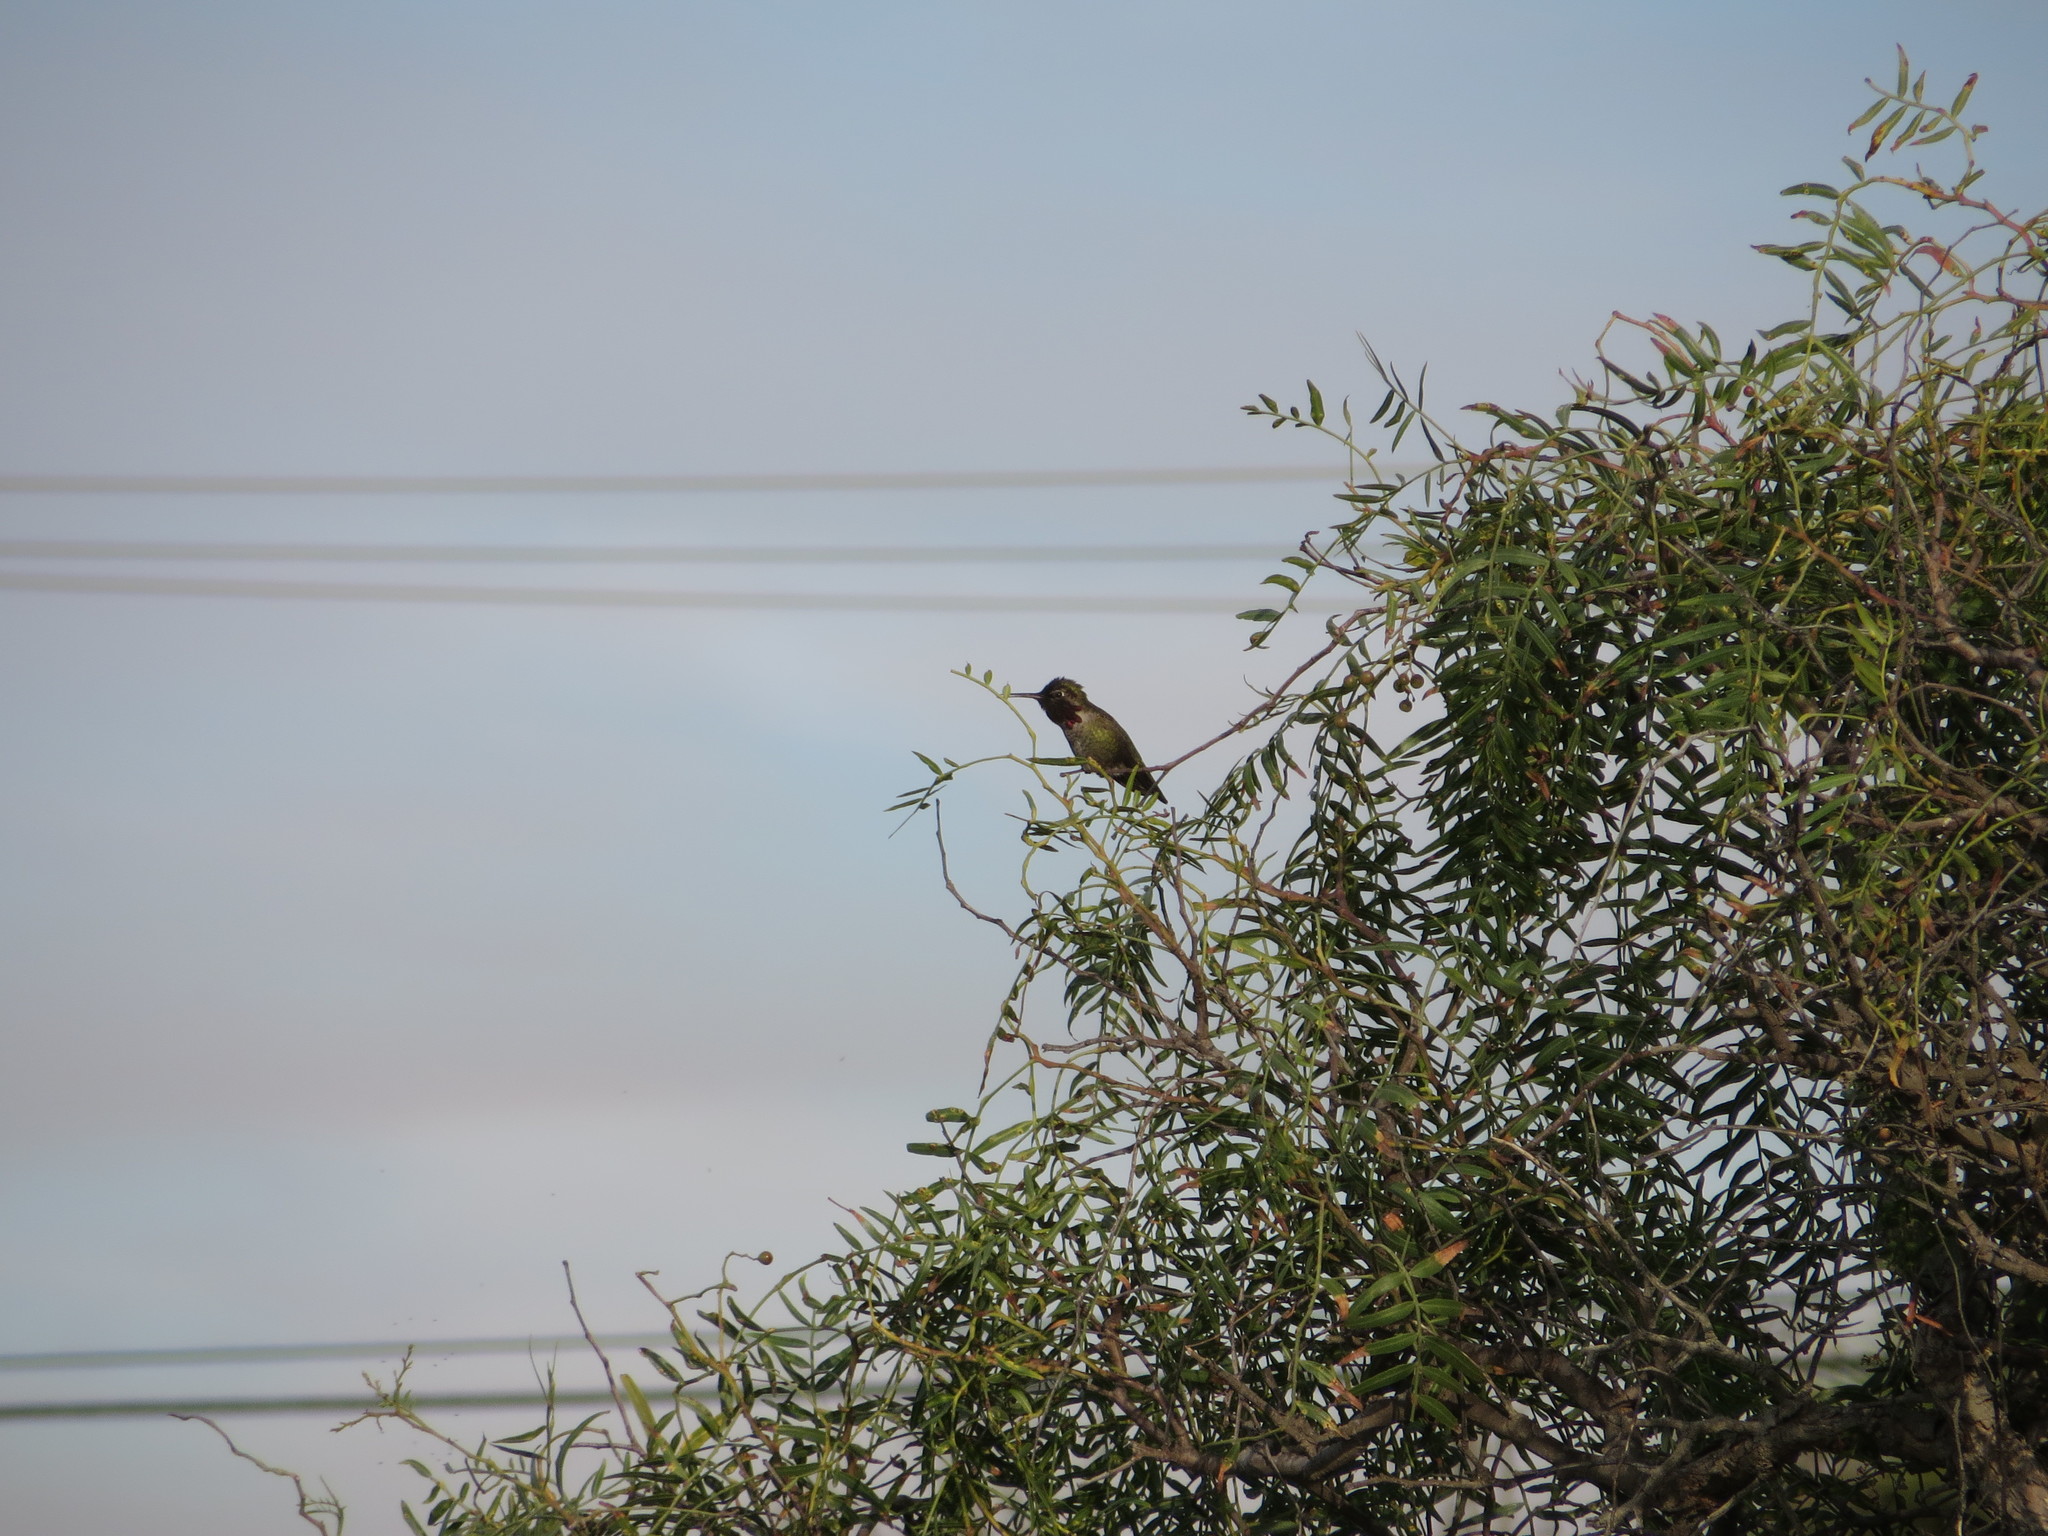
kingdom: Animalia
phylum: Chordata
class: Aves
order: Apodiformes
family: Trochilidae
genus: Calypte
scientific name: Calypte anna
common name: Anna's hummingbird
